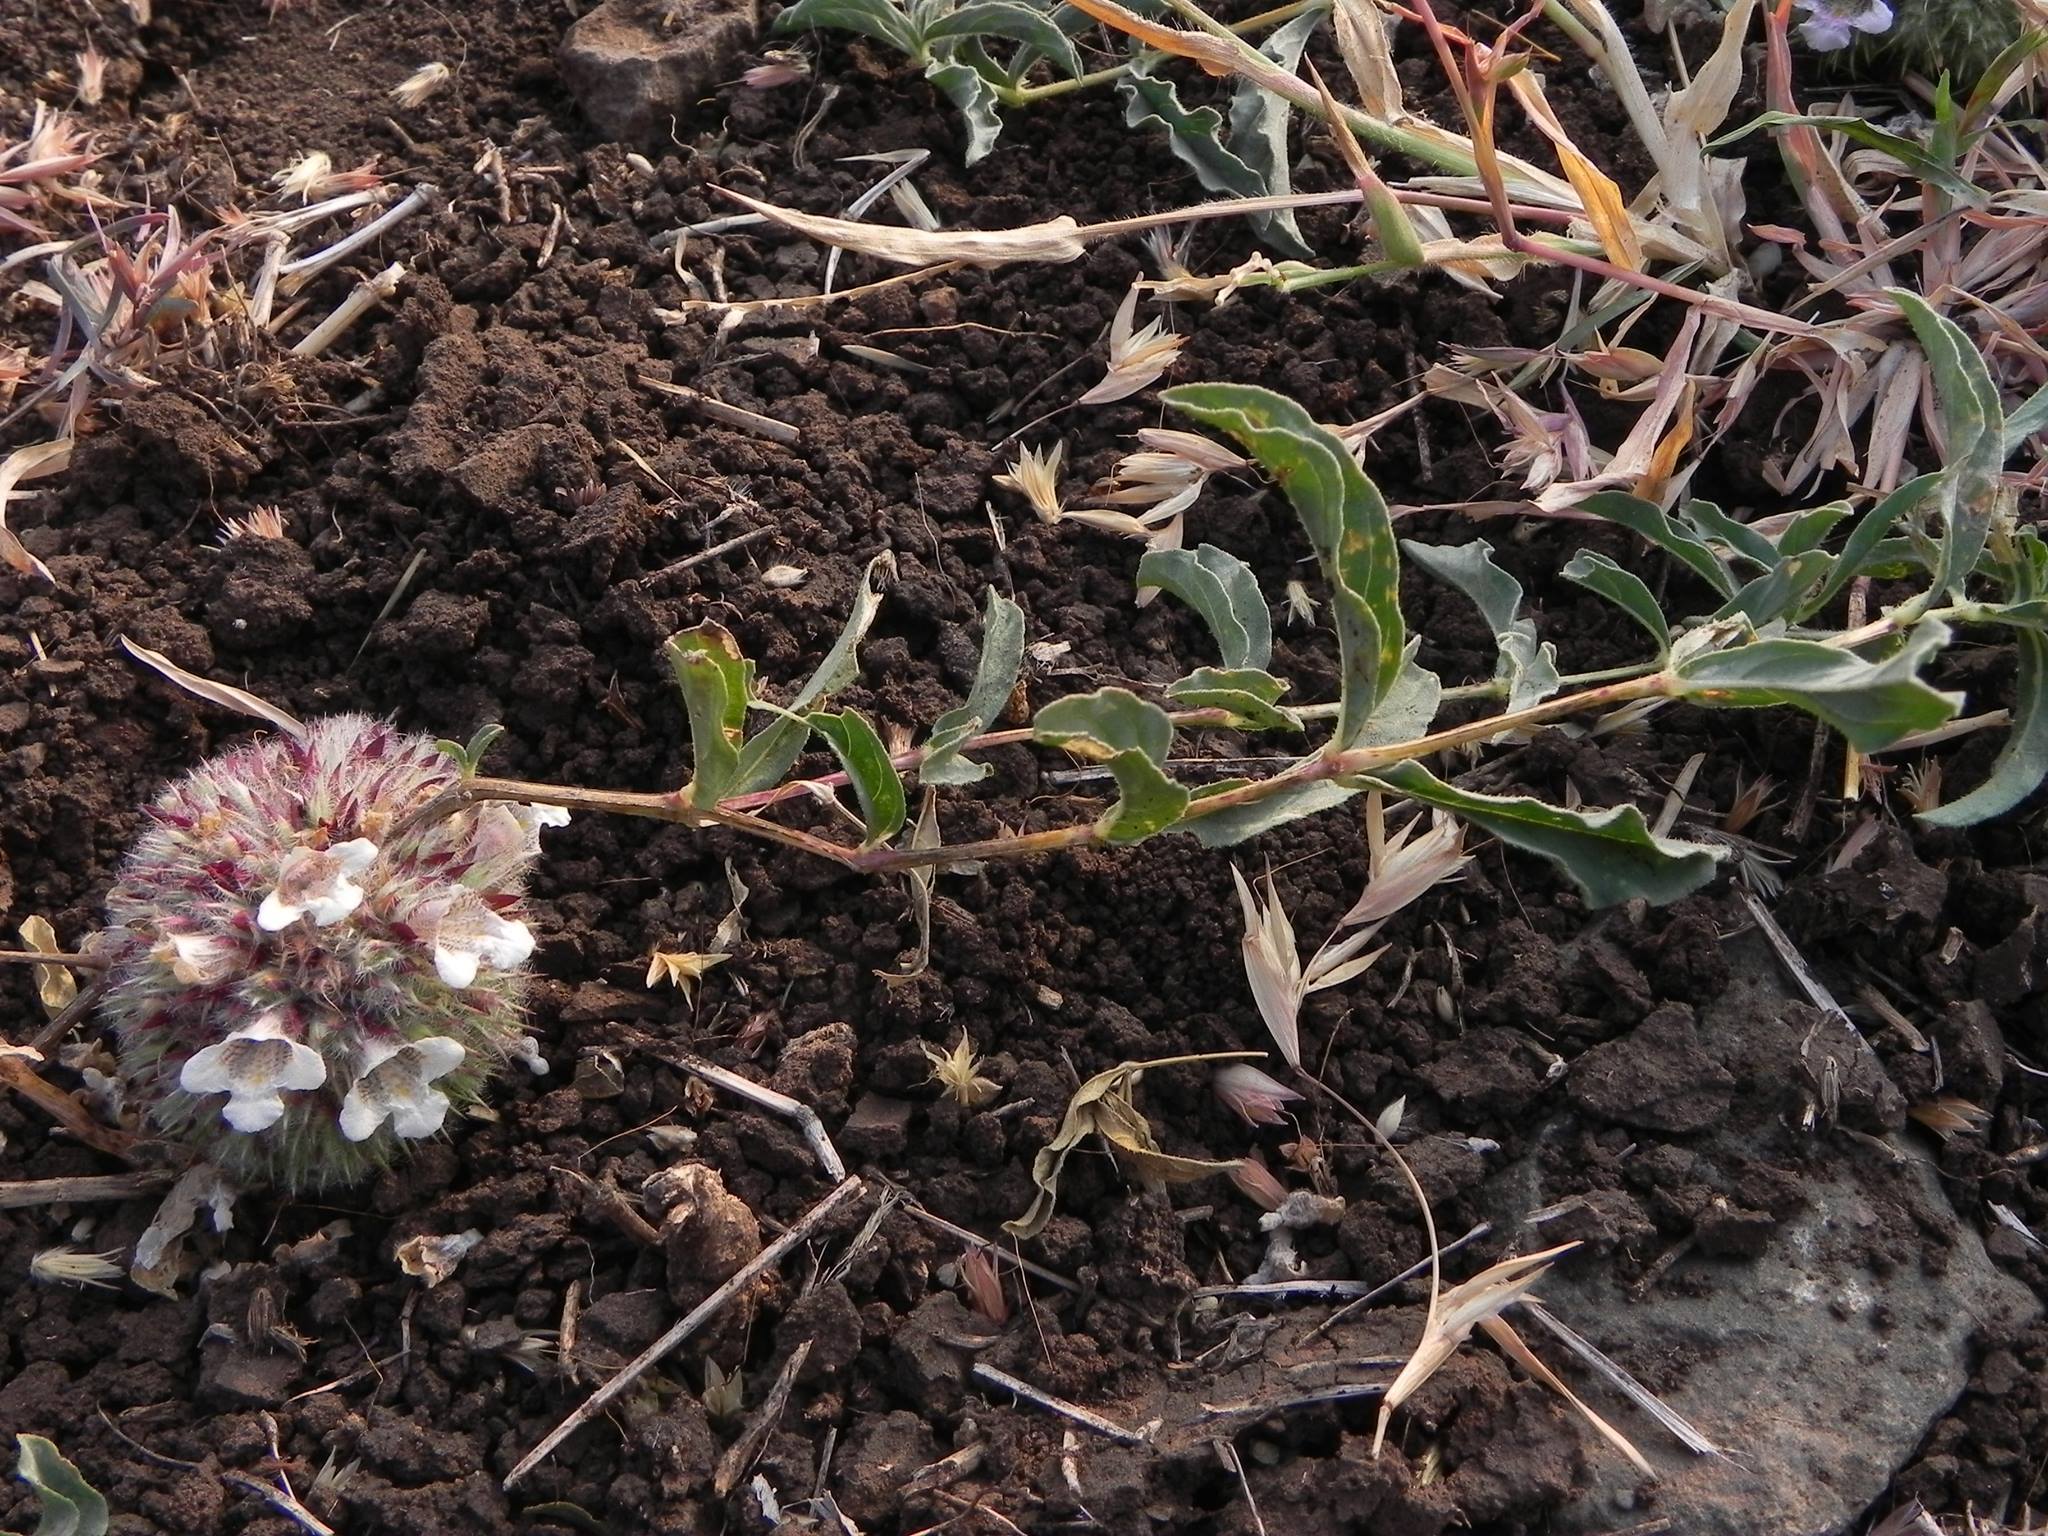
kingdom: Plantae
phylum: Tracheophyta
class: Magnoliopsida
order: Lamiales
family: Acanthaceae
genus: Lepidagathis
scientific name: Lepidagathis cristata
